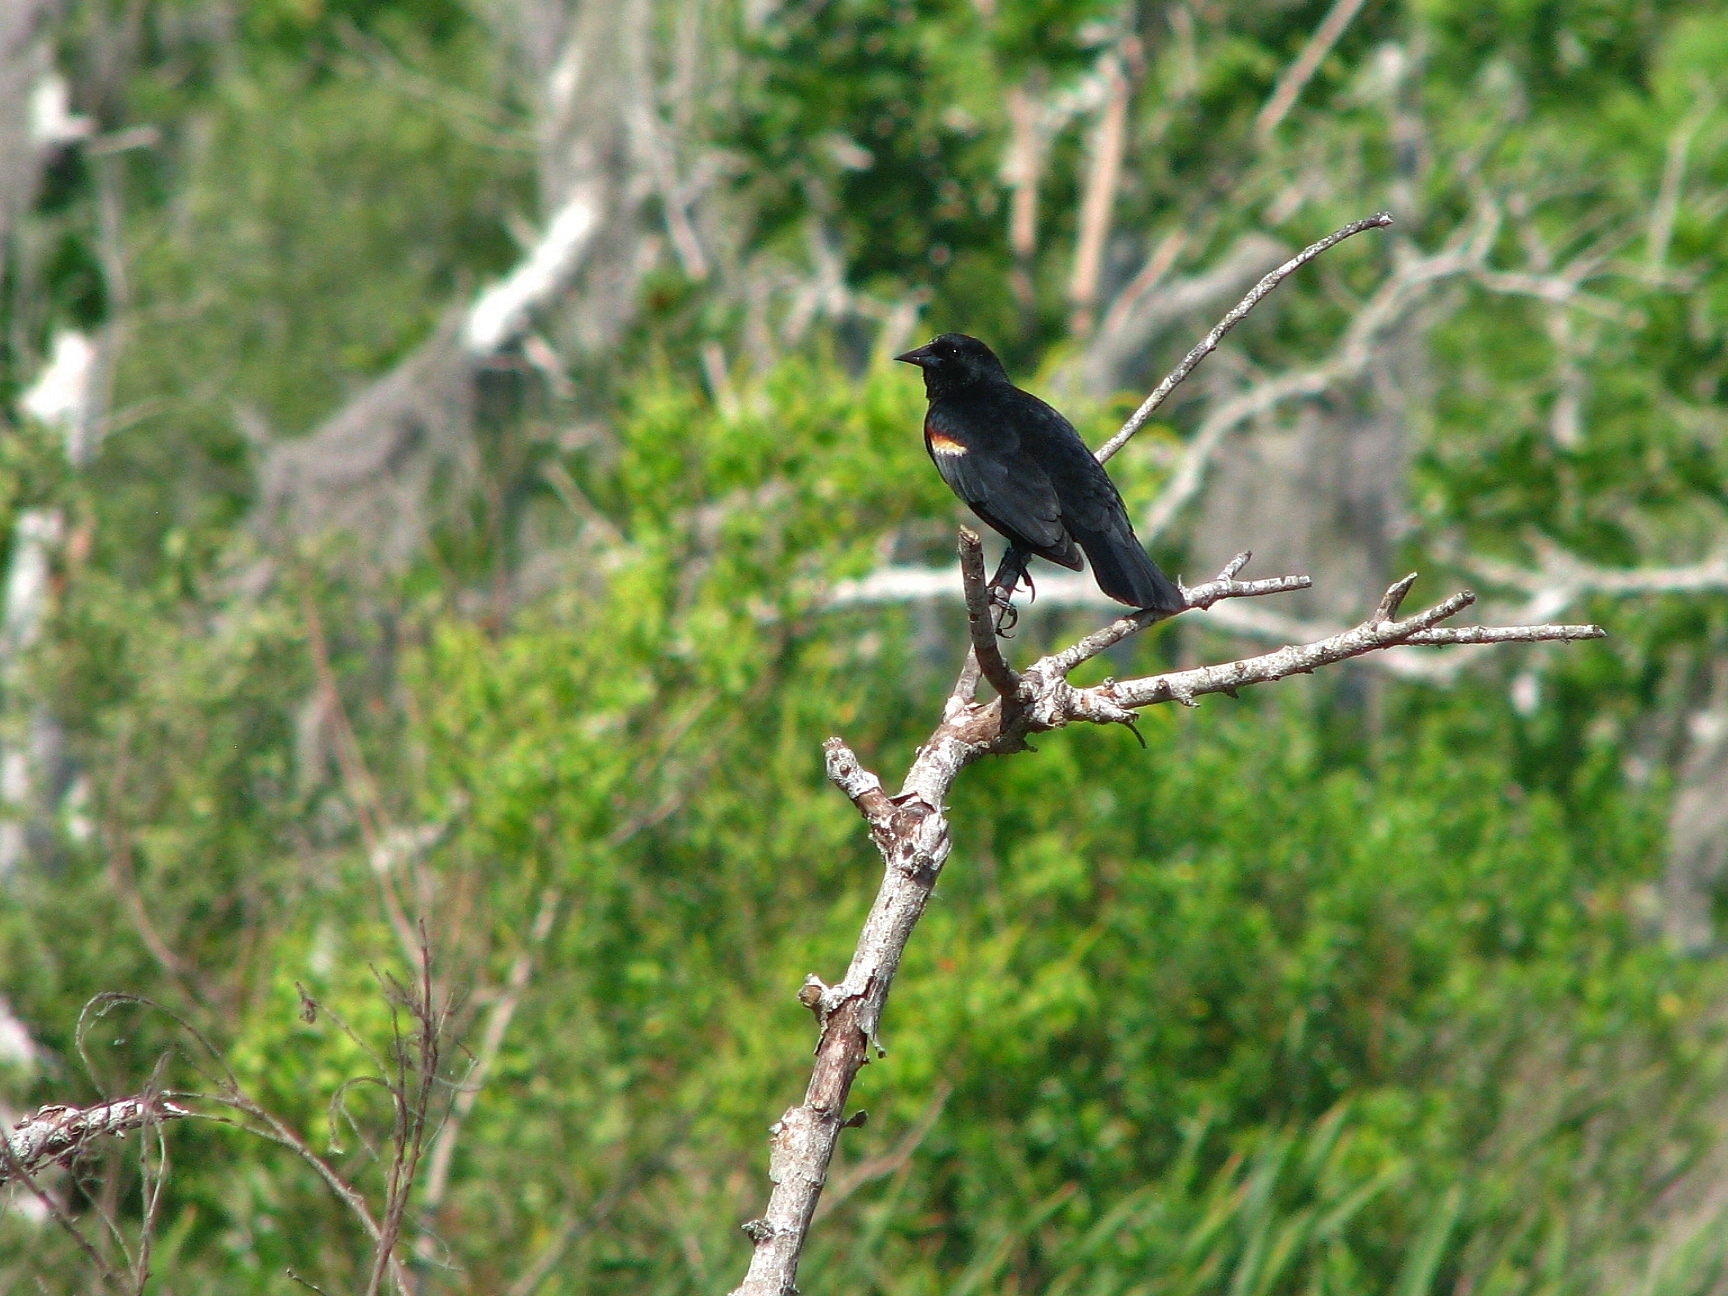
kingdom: Animalia
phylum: Chordata
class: Aves
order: Passeriformes
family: Icteridae
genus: Agelaius
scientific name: Agelaius phoeniceus
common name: Red-winged blackbird
